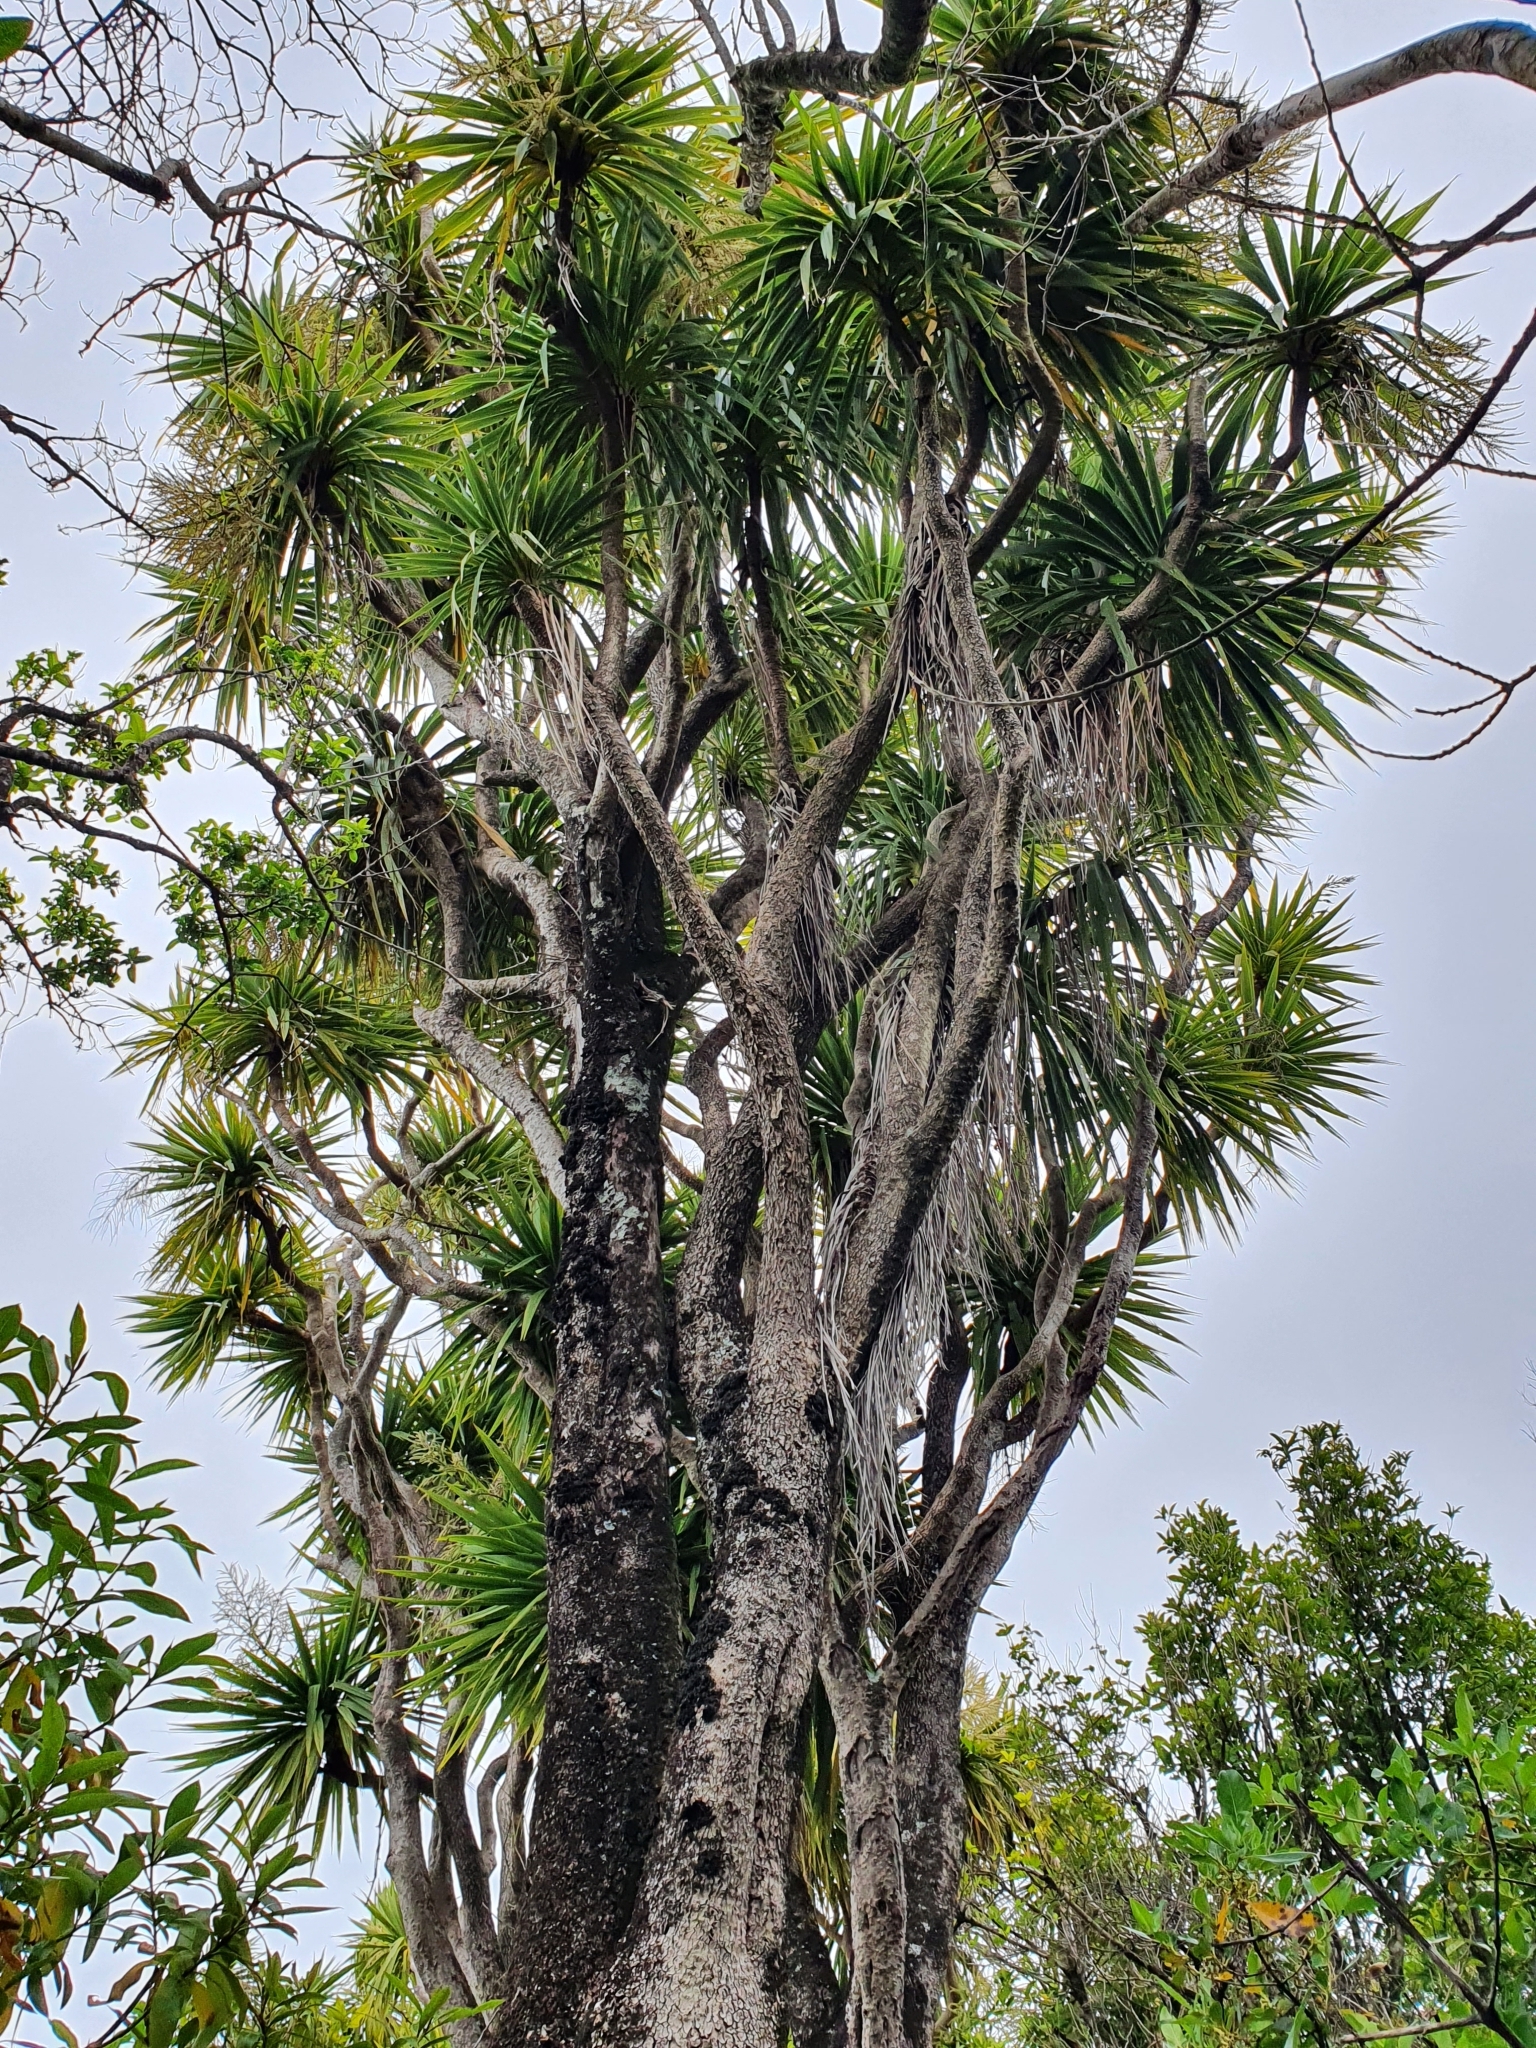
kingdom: Plantae
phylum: Tracheophyta
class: Liliopsida
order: Asparagales
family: Asparagaceae
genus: Cordyline
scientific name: Cordyline australis
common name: Cabbage-palm
